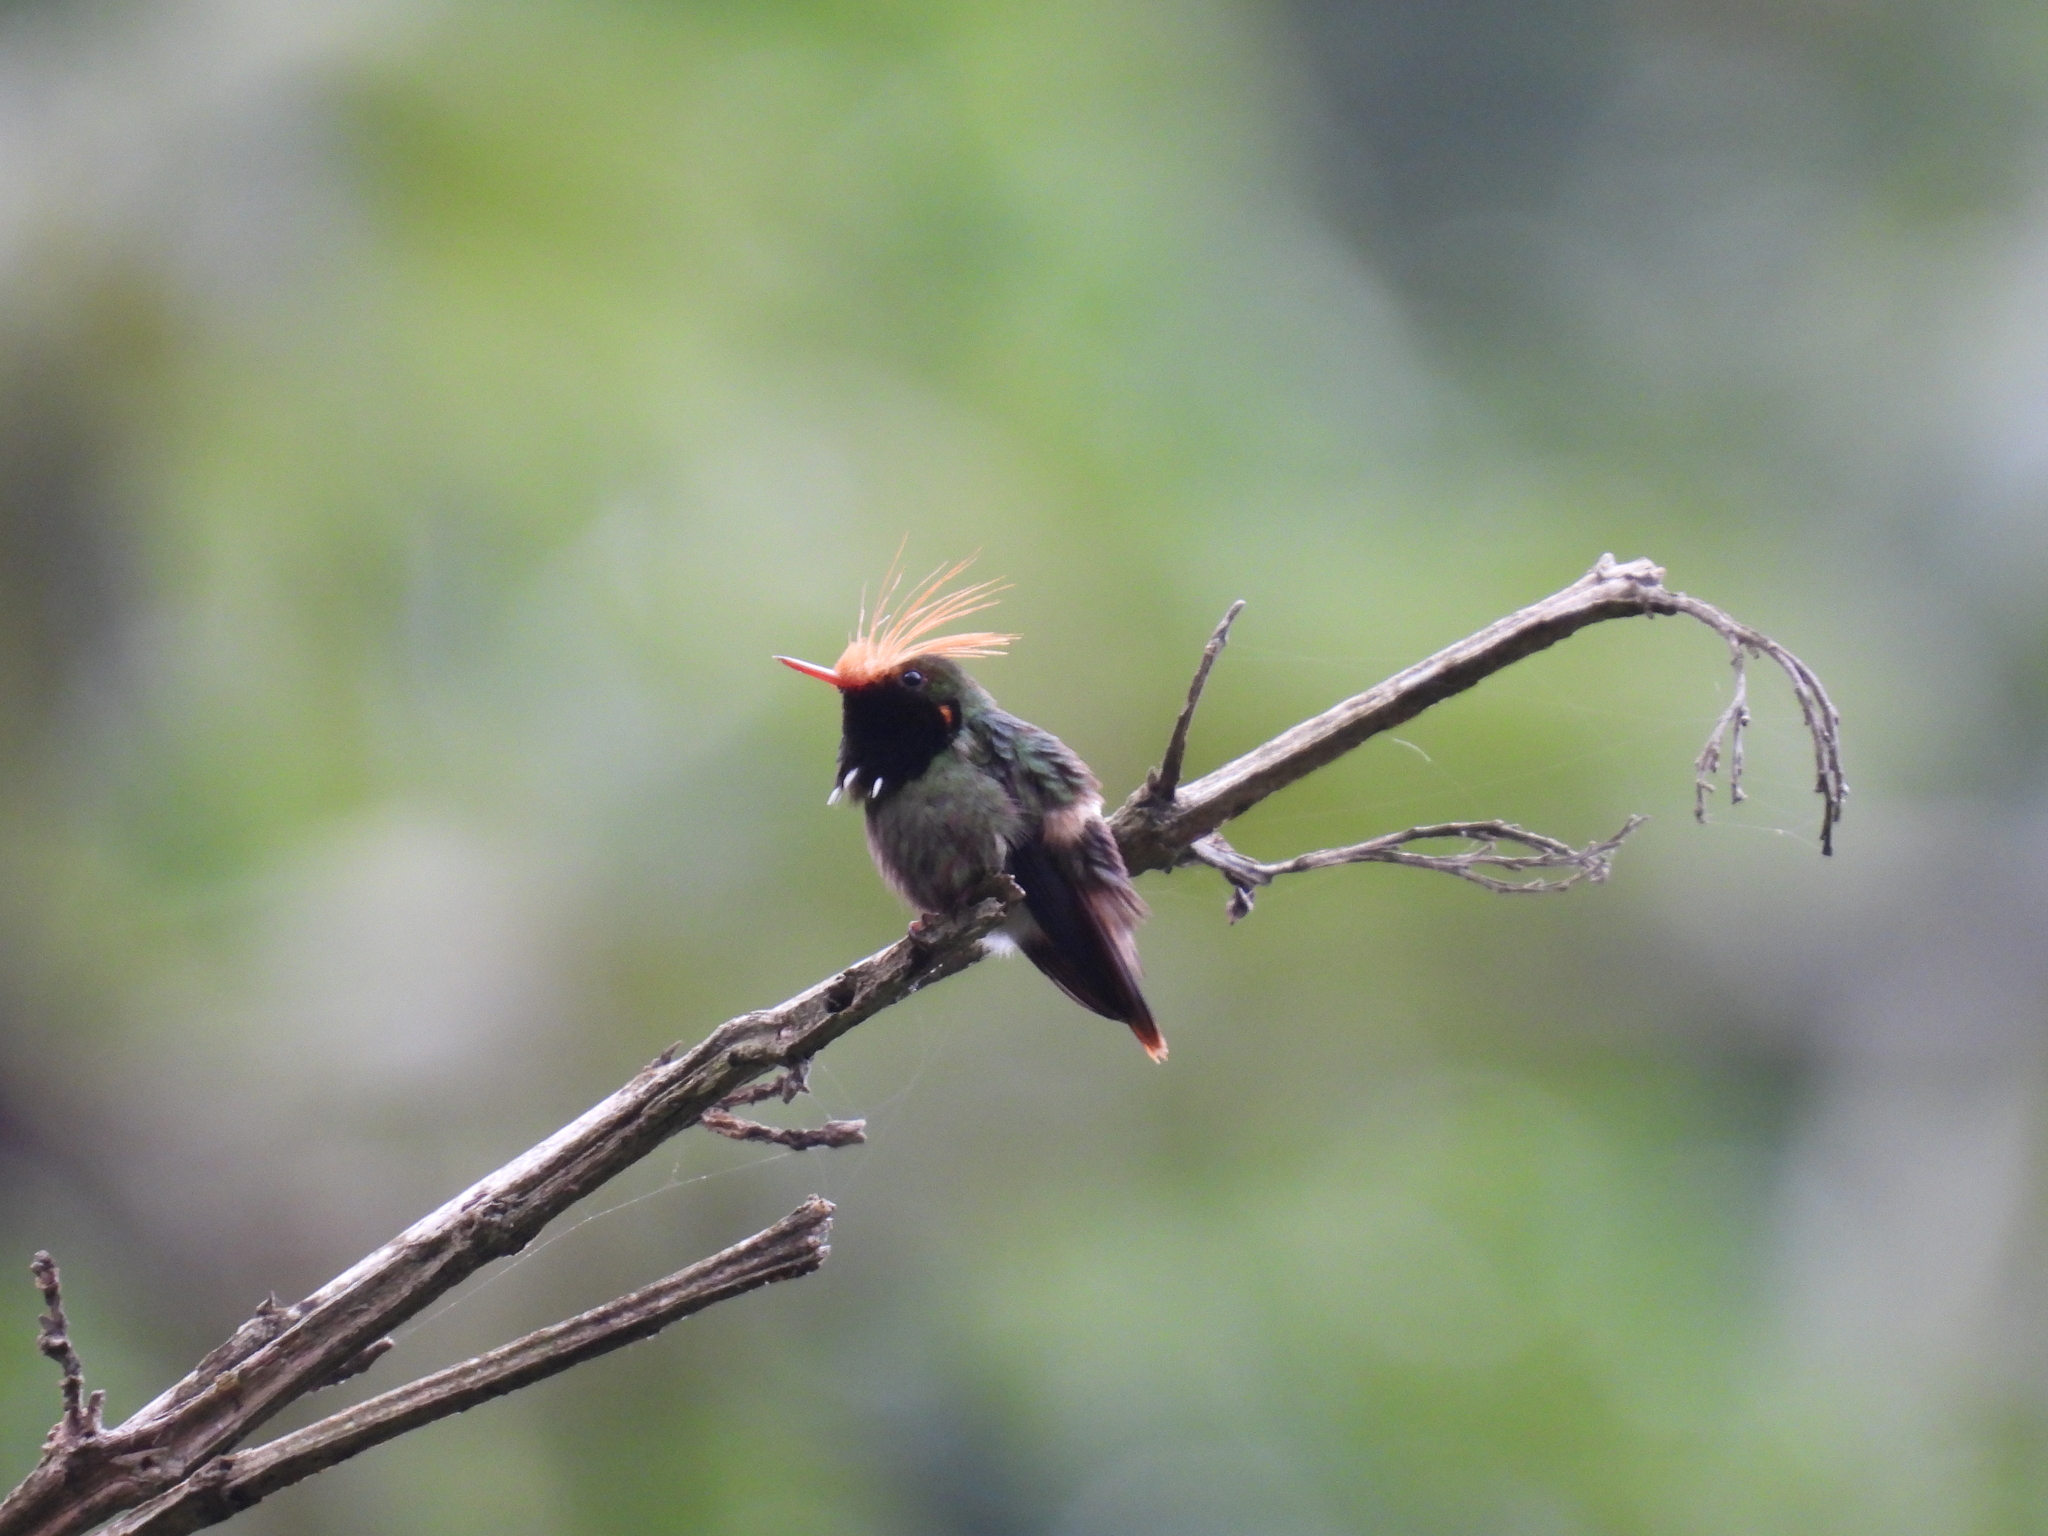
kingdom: Animalia
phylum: Chordata
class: Aves
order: Apodiformes
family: Trochilidae
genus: Lophornis
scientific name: Lophornis delattrei
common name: Rufous-crested coquette
